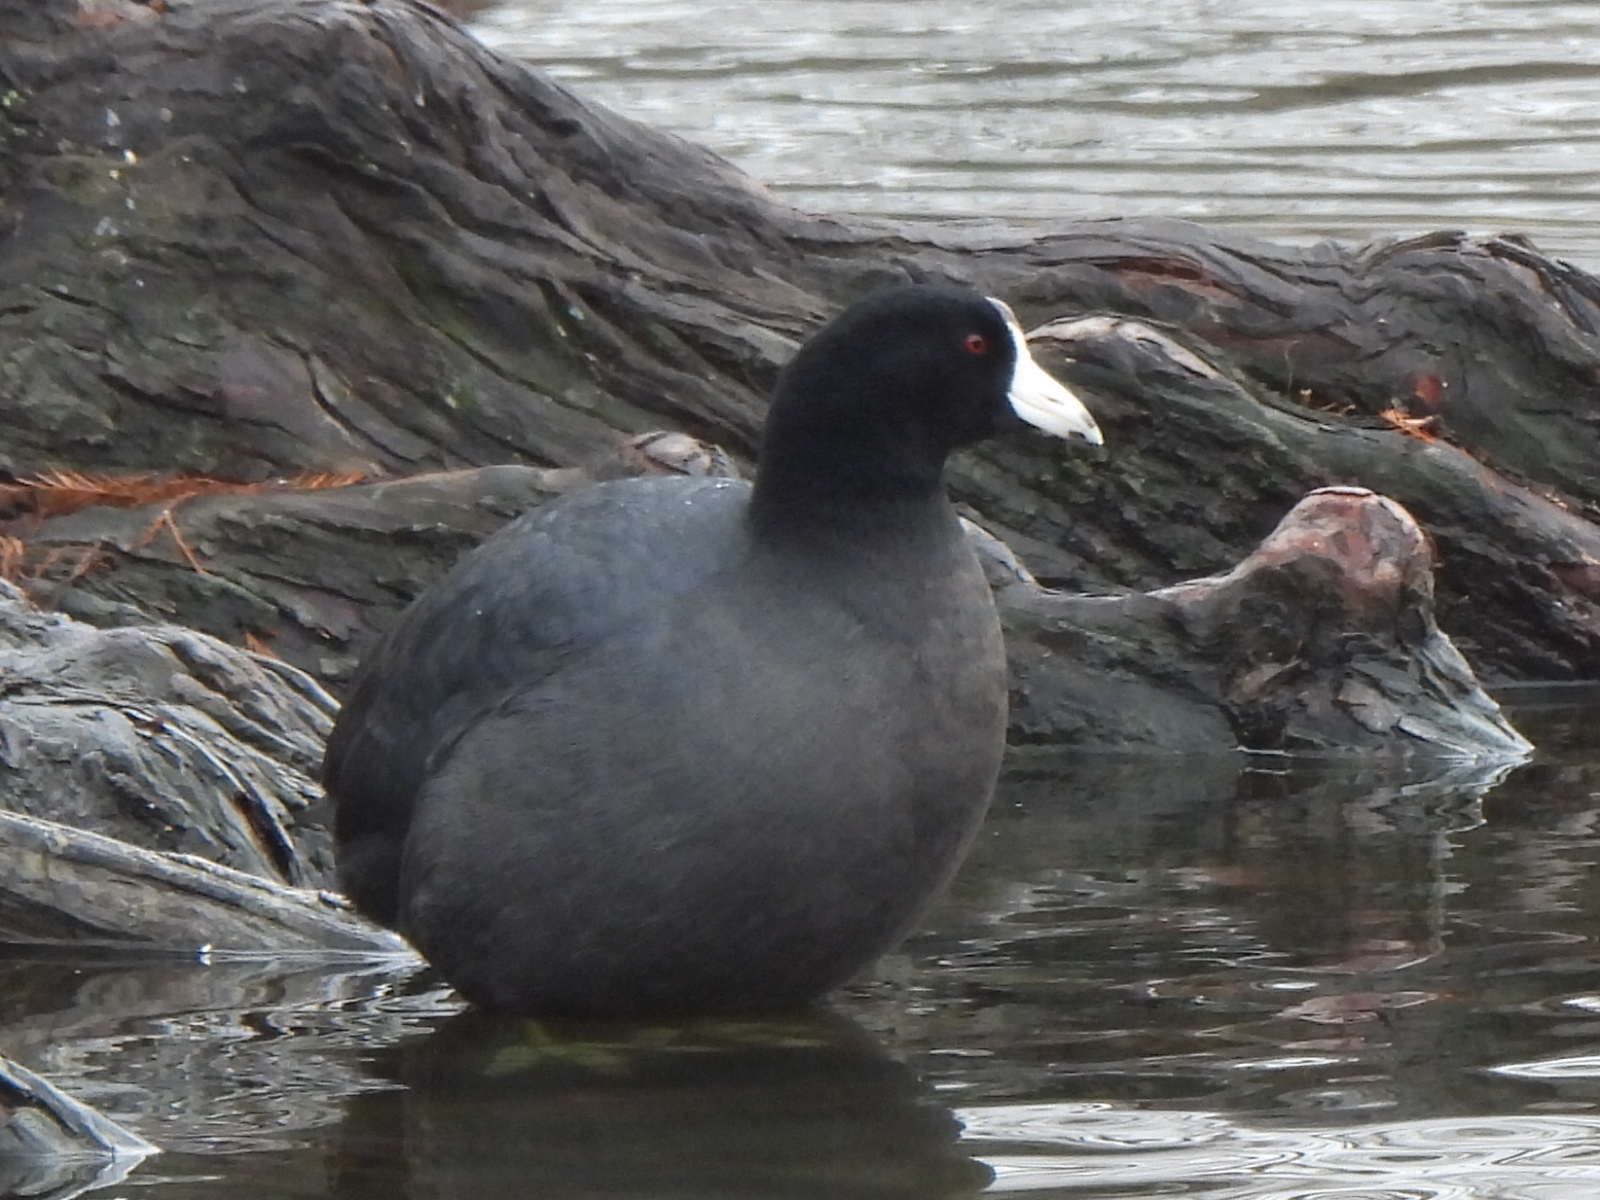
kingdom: Animalia
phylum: Chordata
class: Aves
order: Gruiformes
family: Rallidae
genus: Fulica
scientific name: Fulica americana
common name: American coot
